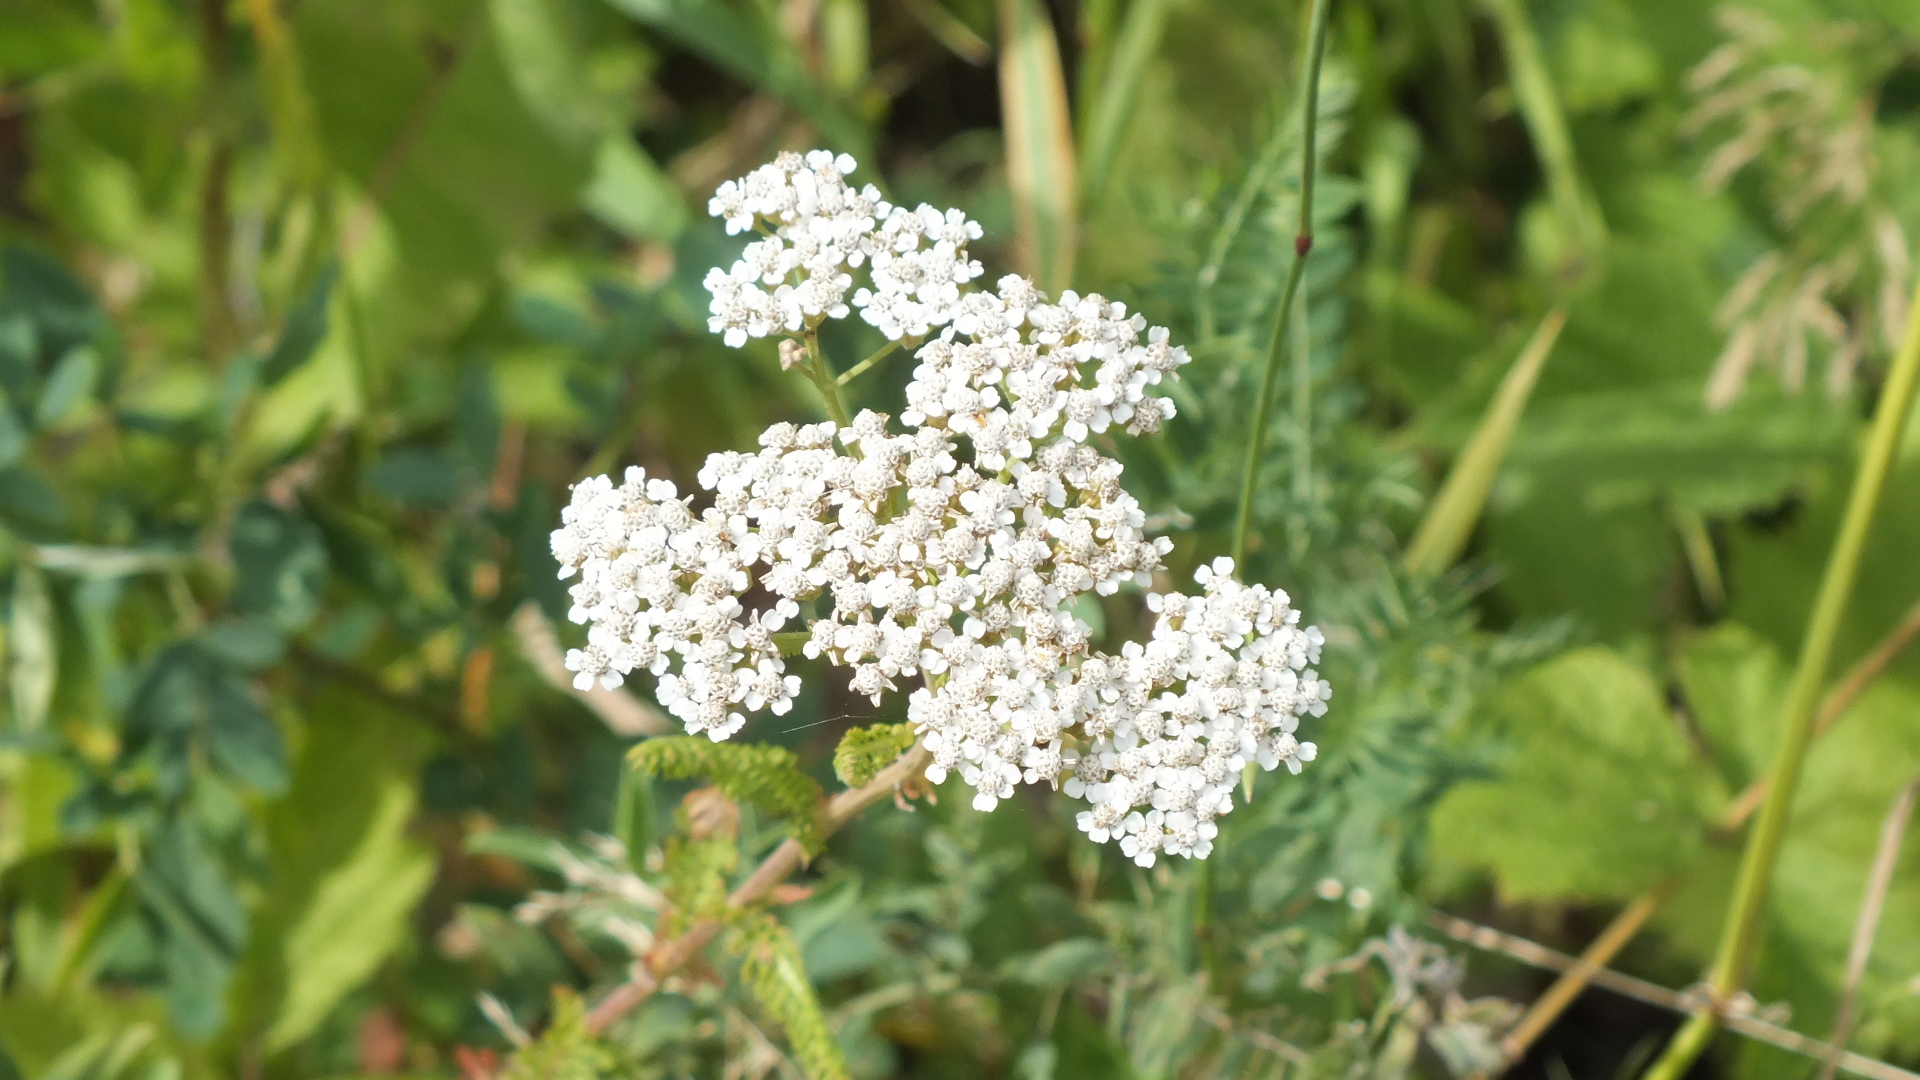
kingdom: Plantae
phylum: Tracheophyta
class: Magnoliopsida
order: Asterales
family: Asteraceae
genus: Achillea
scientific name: Achillea millefolium
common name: Yarrow
